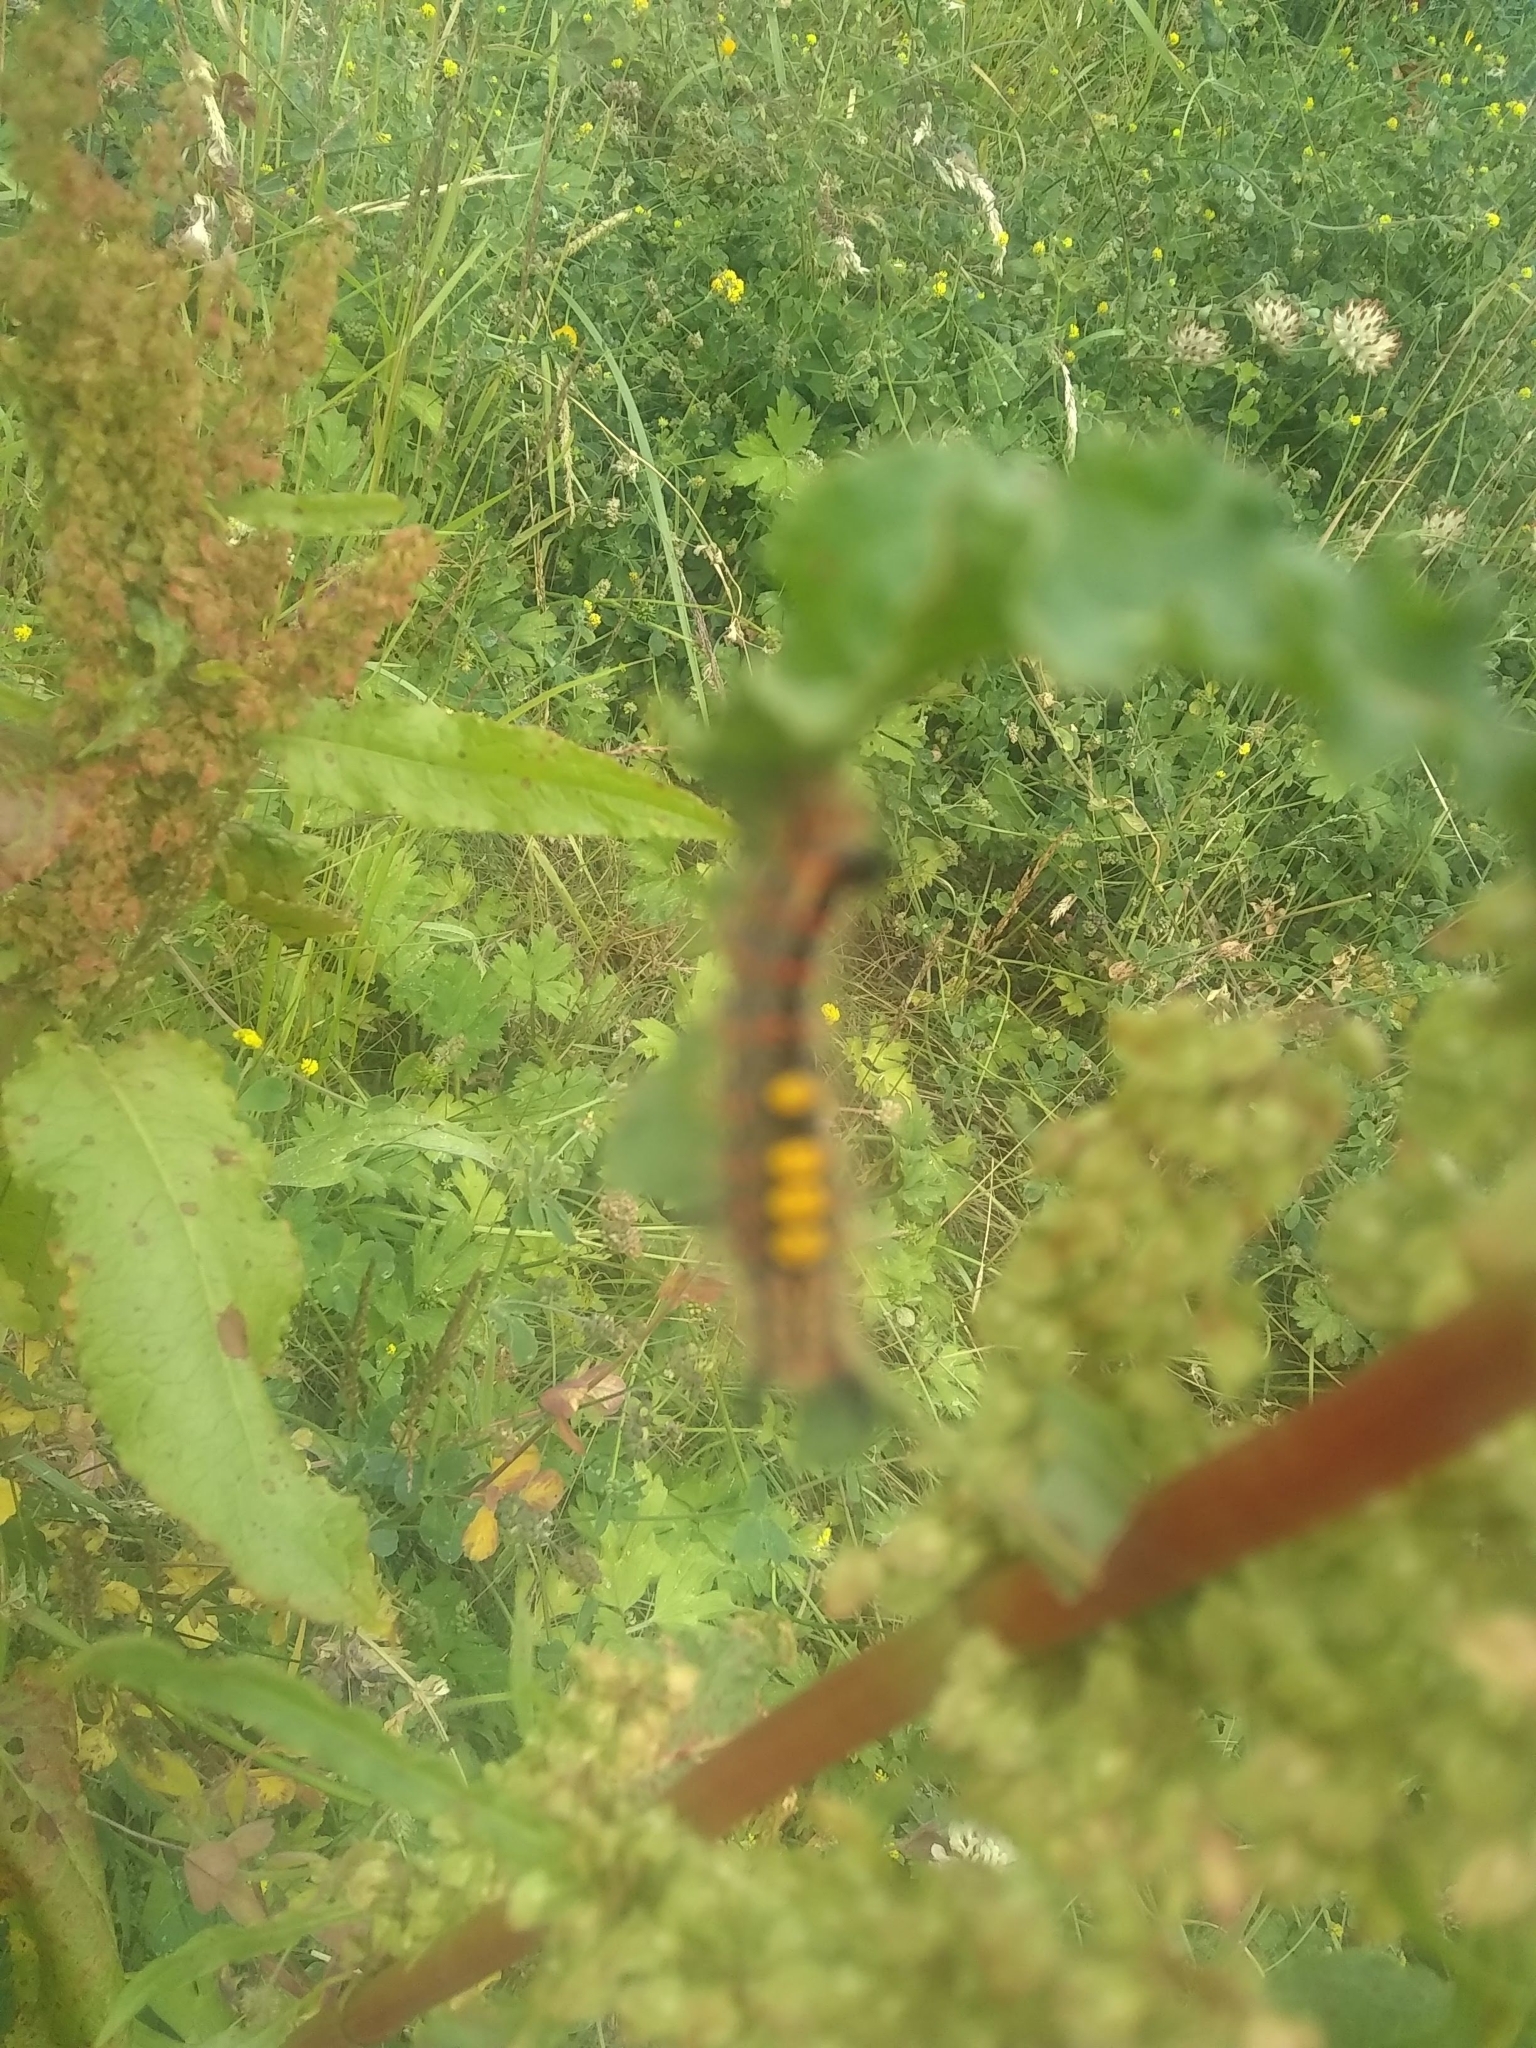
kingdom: Animalia
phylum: Arthropoda
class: Insecta
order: Lepidoptera
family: Erebidae
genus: Orgyia
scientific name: Orgyia antiqua
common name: Vapourer
